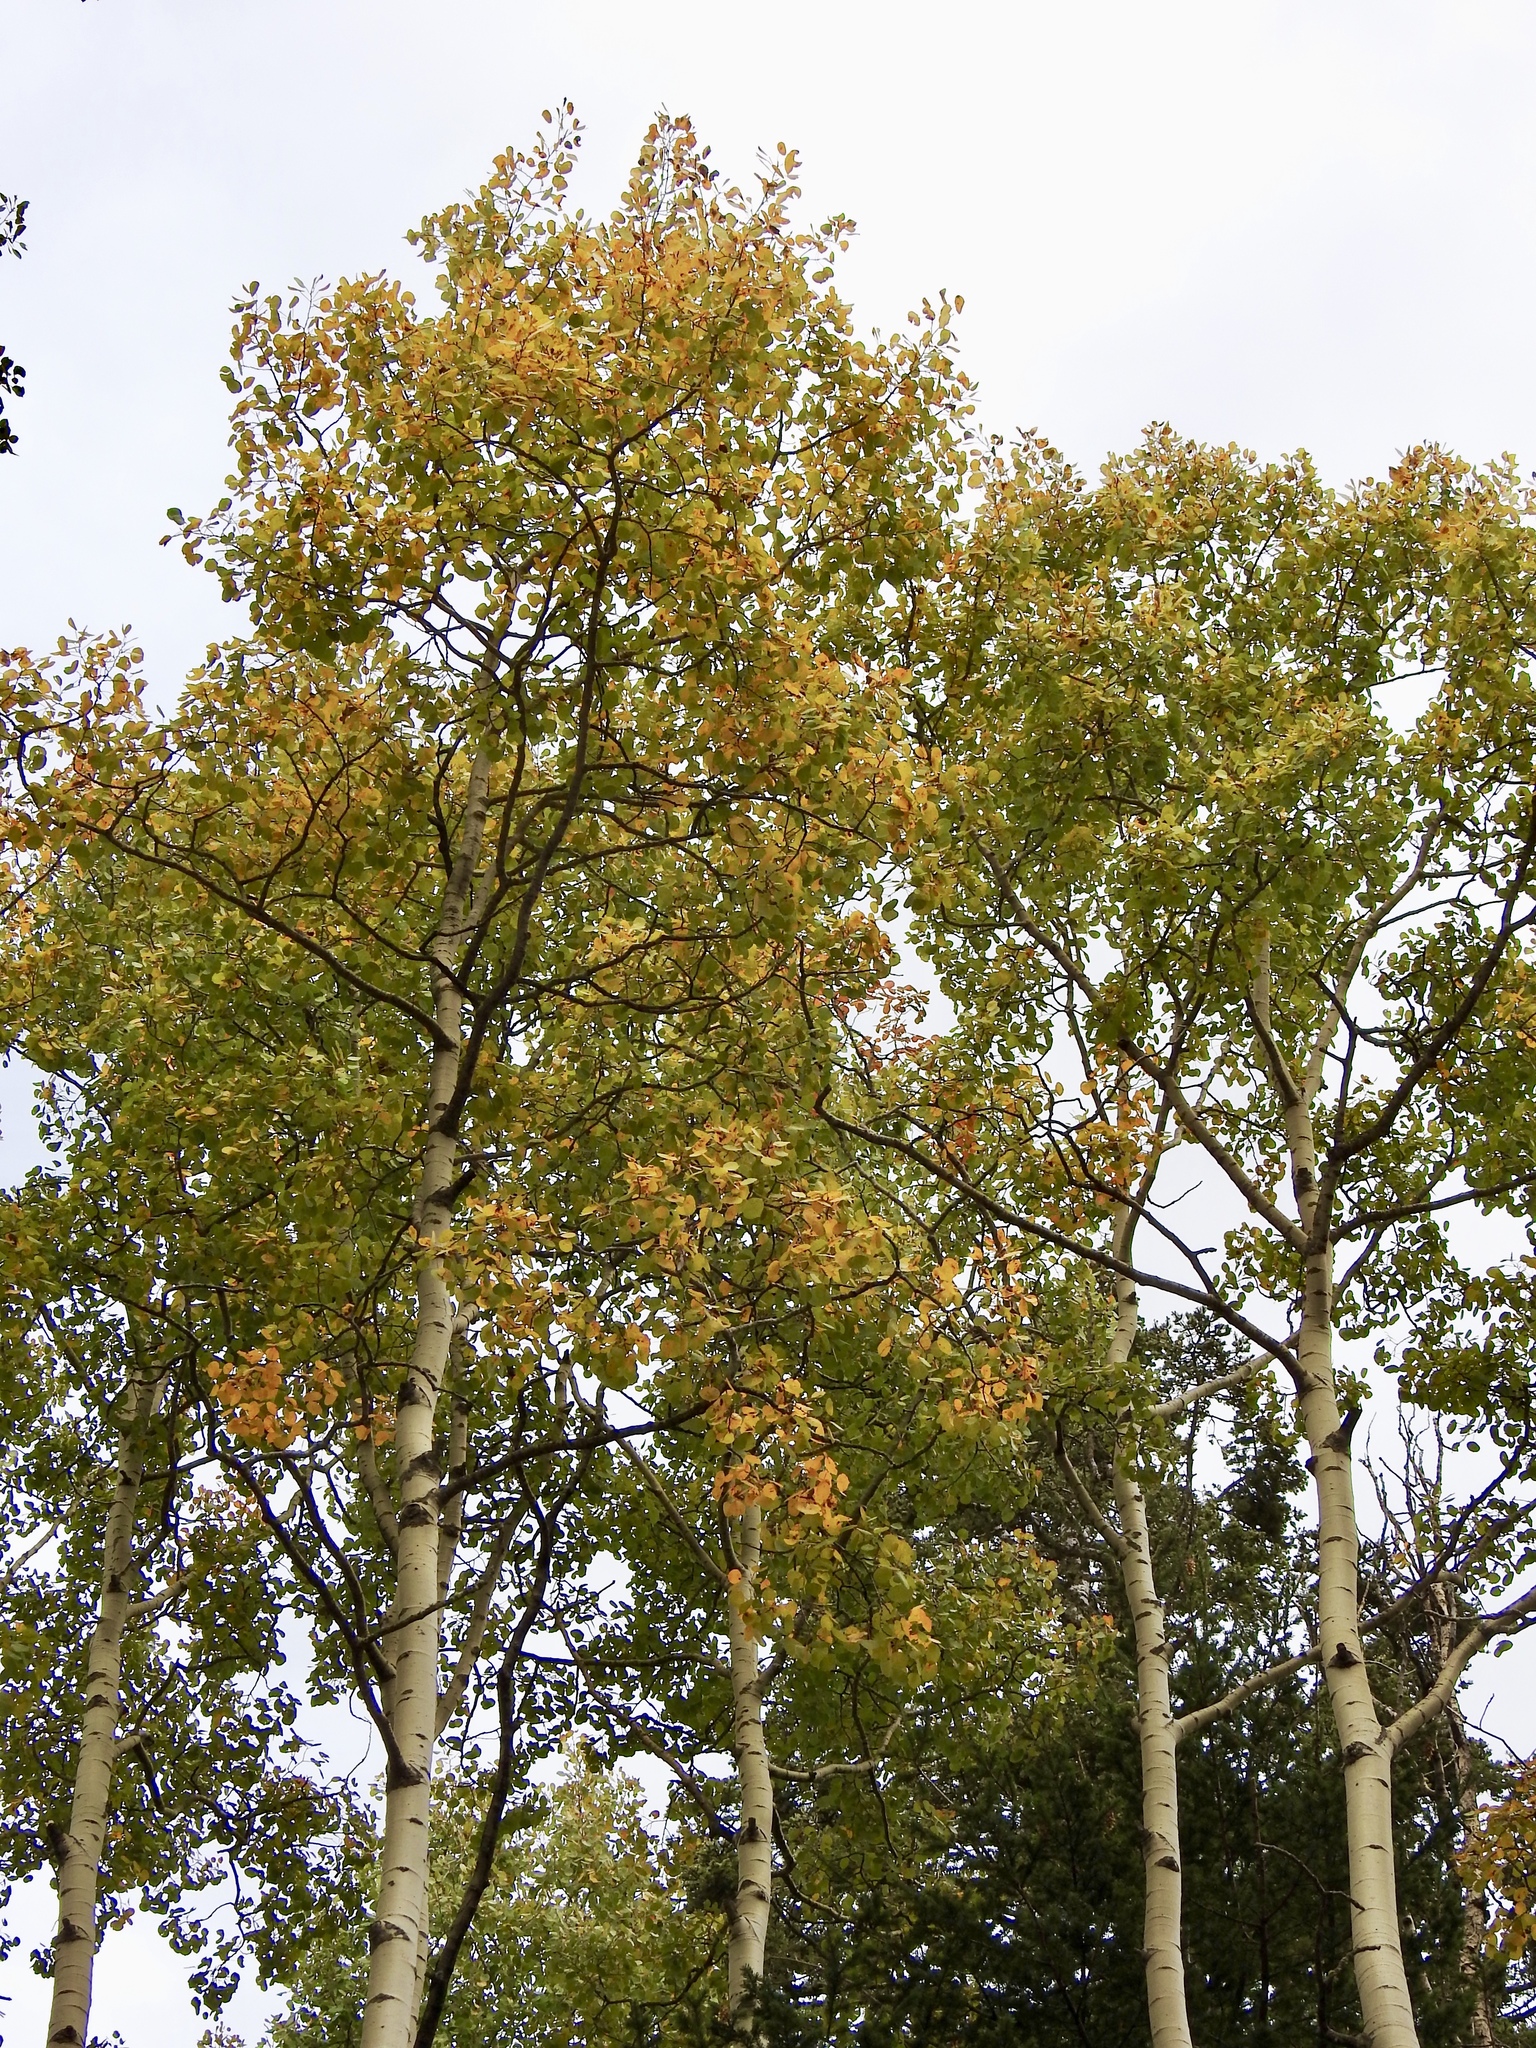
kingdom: Plantae
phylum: Tracheophyta
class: Magnoliopsida
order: Malpighiales
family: Salicaceae
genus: Populus
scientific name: Populus tremuloides
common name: Quaking aspen
